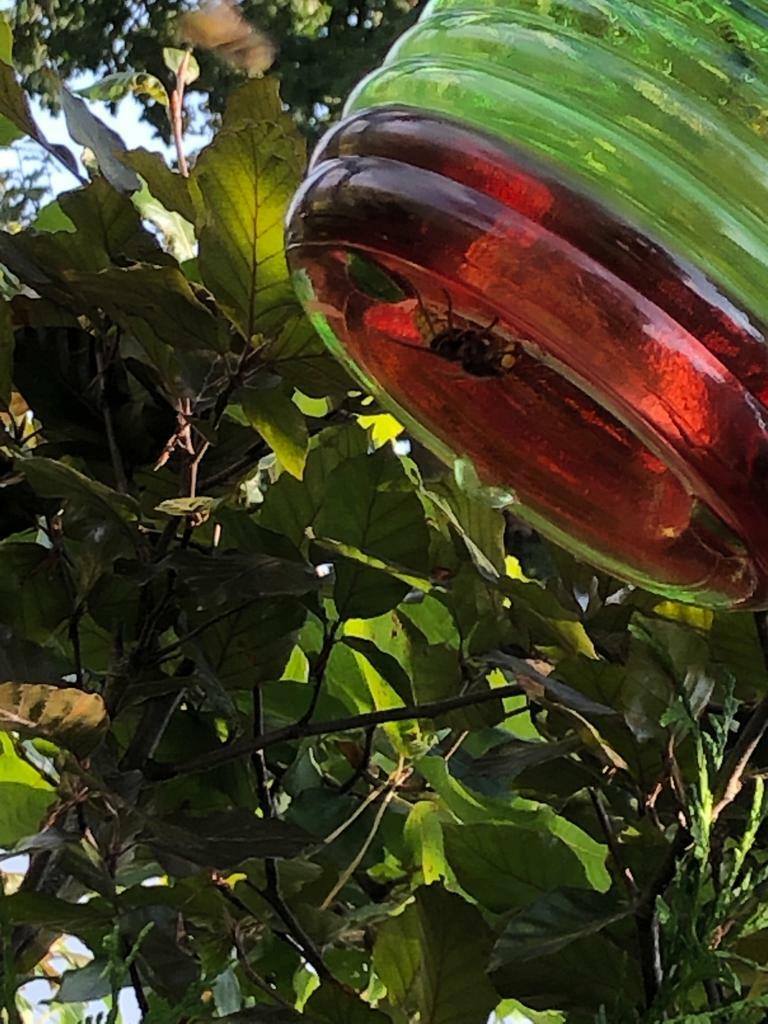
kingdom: Animalia
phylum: Arthropoda
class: Insecta
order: Hymenoptera
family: Vespidae
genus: Vespa
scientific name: Vespa crabro
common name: Hornet
